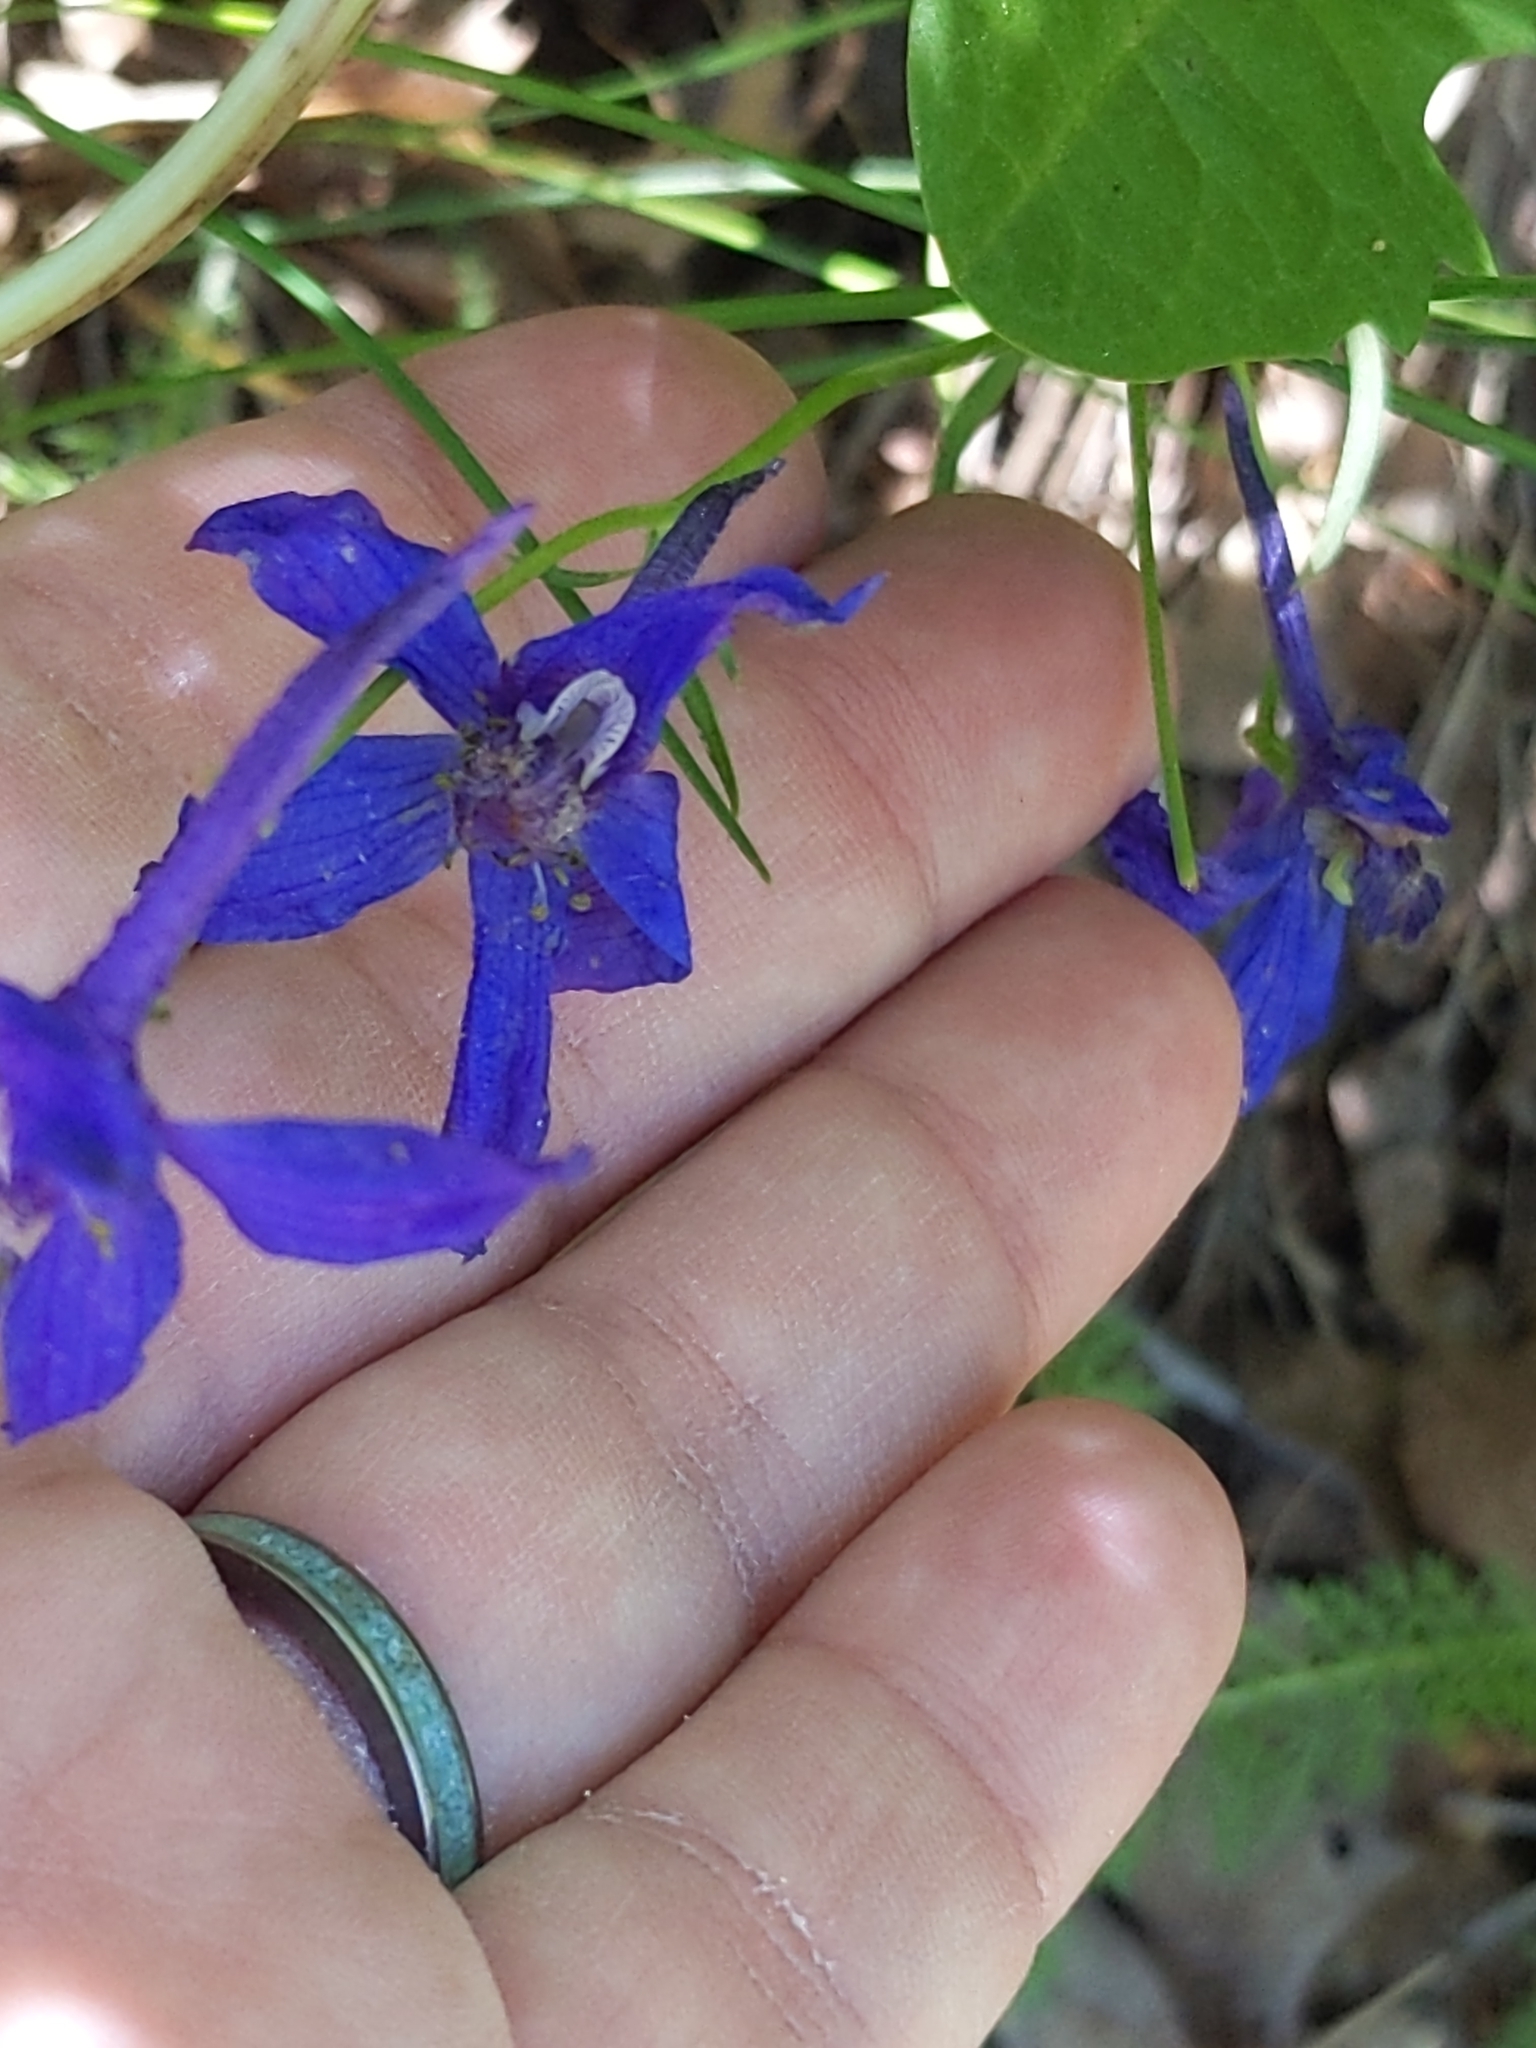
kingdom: Plantae
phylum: Tracheophyta
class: Magnoliopsida
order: Ranunculales
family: Ranunculaceae
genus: Delphinium
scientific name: Delphinium nuttallianum
